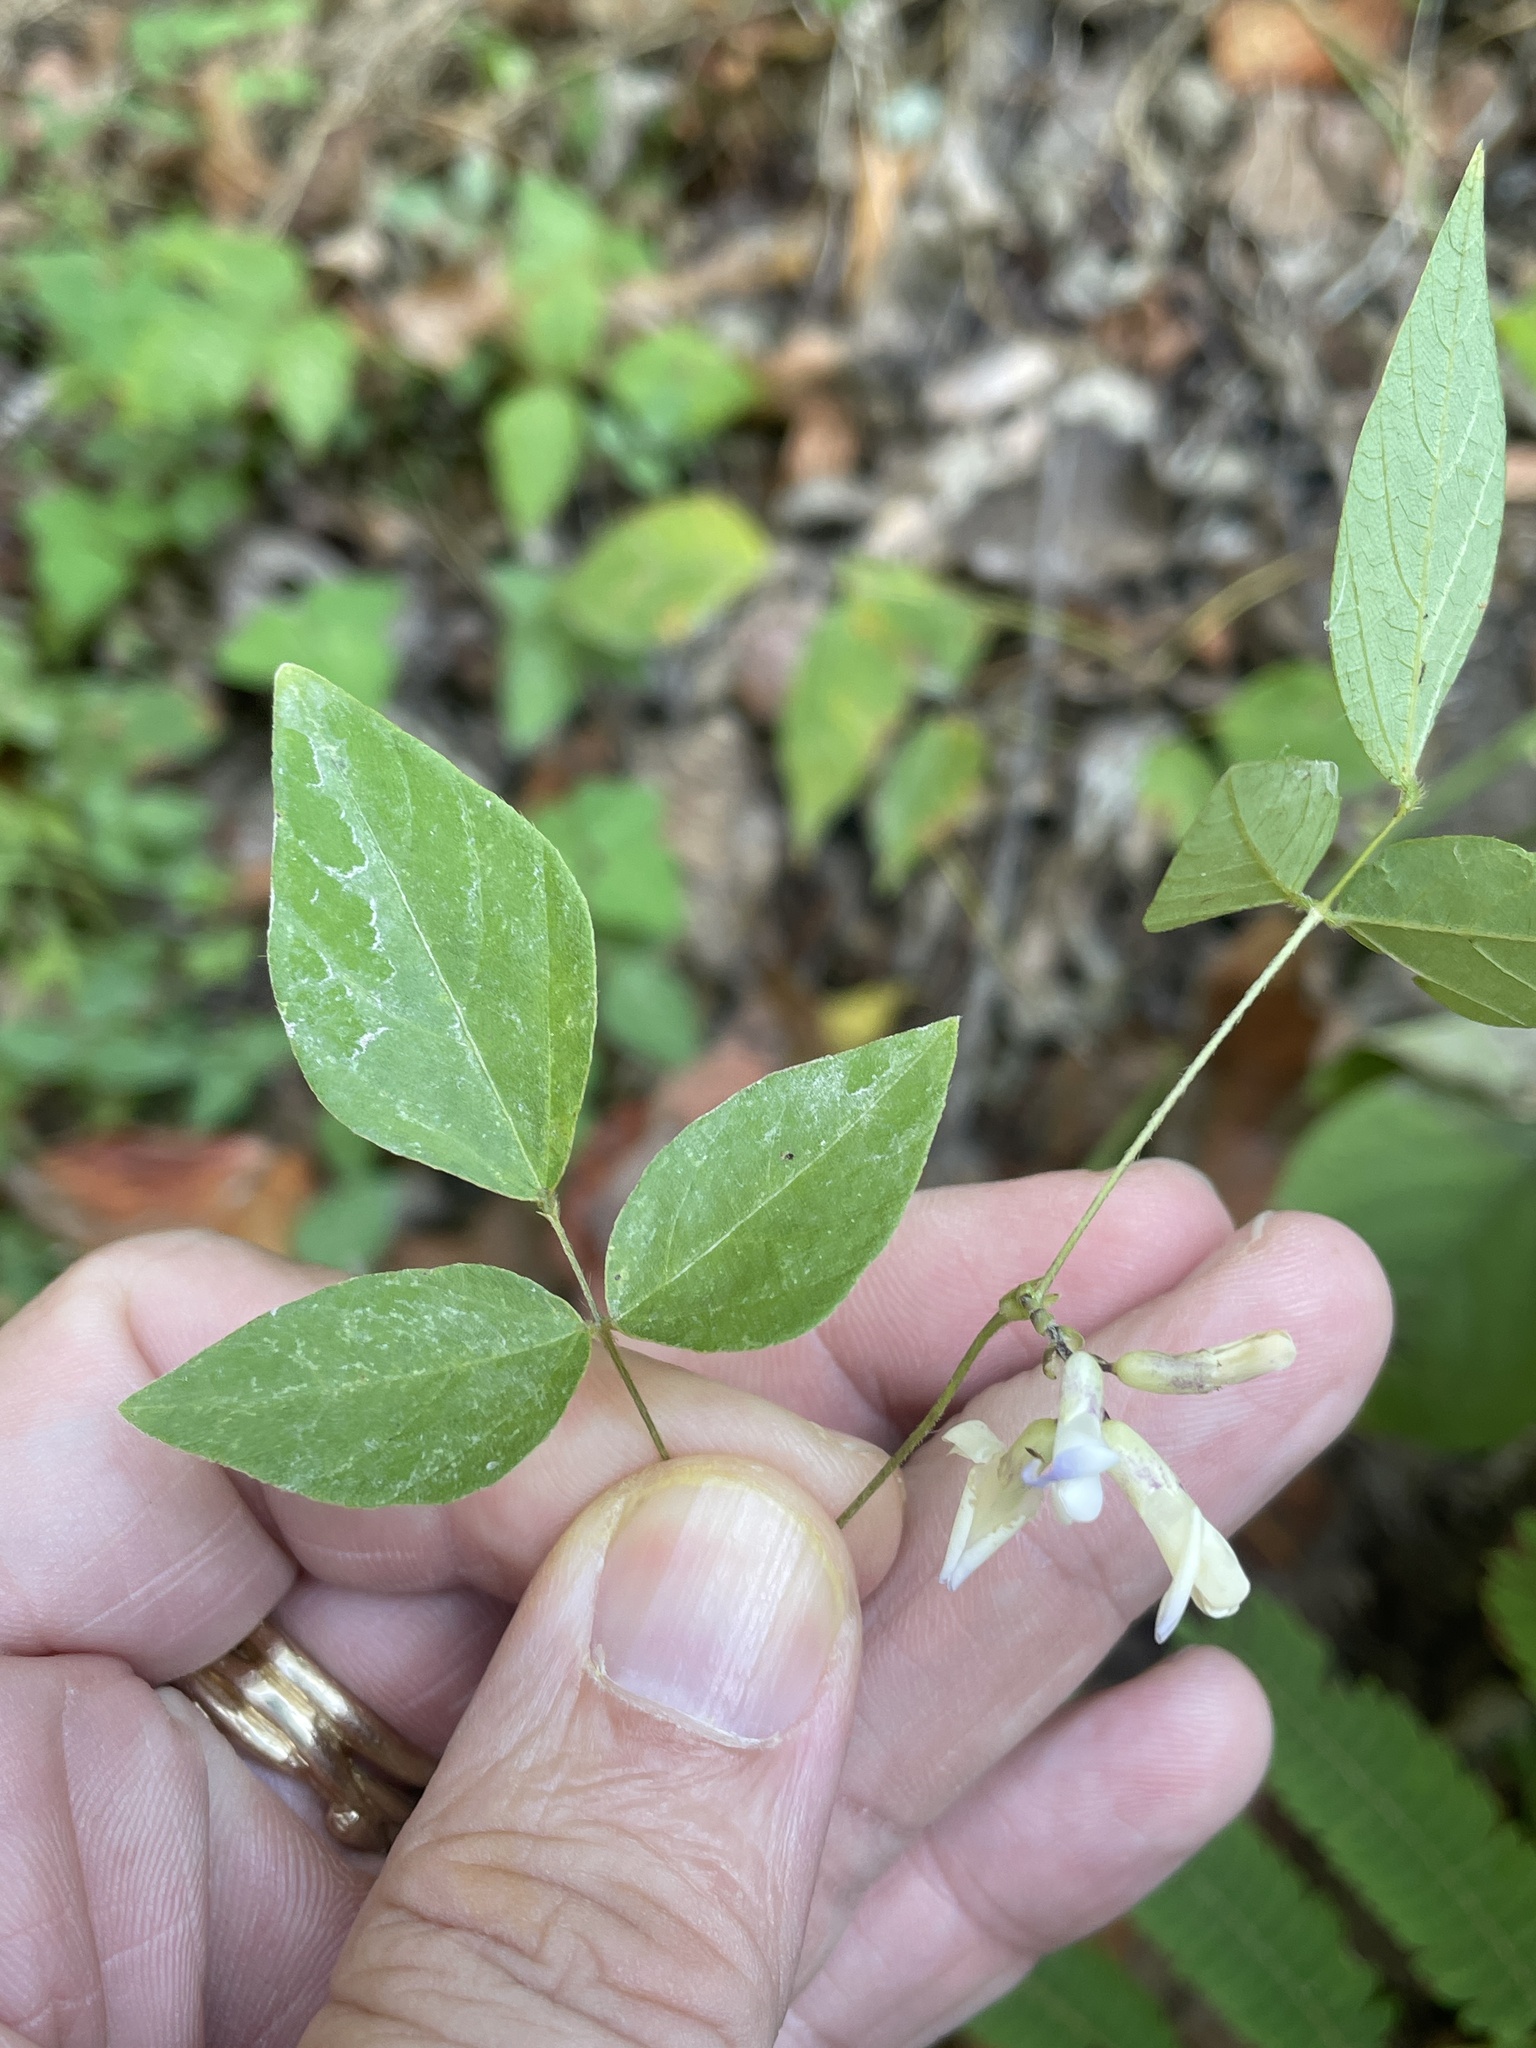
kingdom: Plantae
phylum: Tracheophyta
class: Magnoliopsida
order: Fabales
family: Fabaceae
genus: Amphicarpaea
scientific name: Amphicarpaea bracteata
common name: American hog peanut
